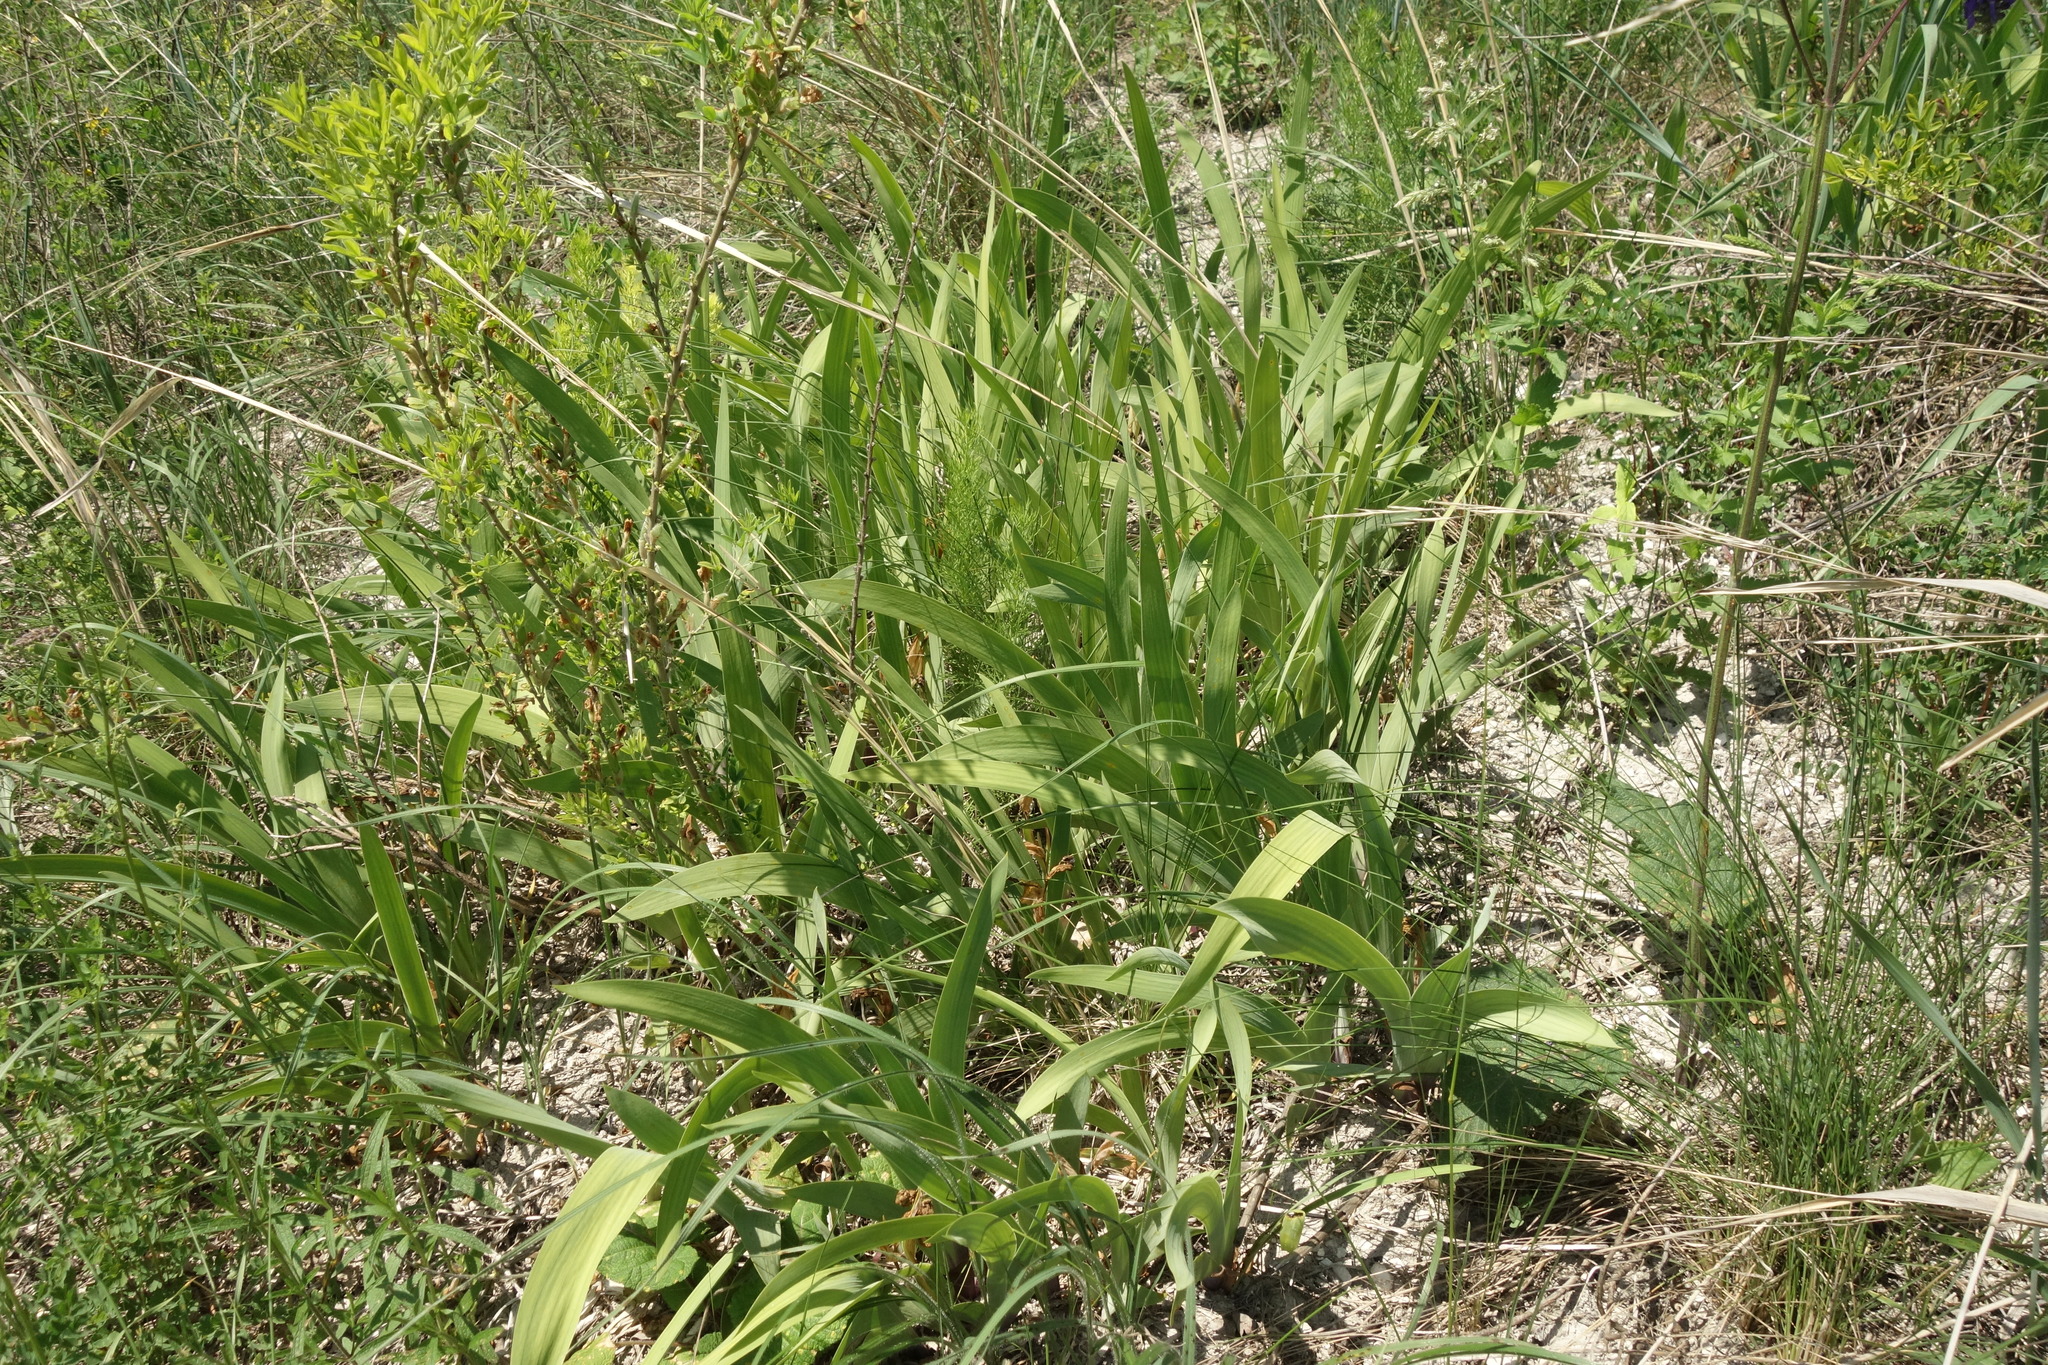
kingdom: Plantae
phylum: Tracheophyta
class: Liliopsida
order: Asparagales
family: Iridaceae
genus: Iris
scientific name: Iris aphylla
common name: Stool iris
